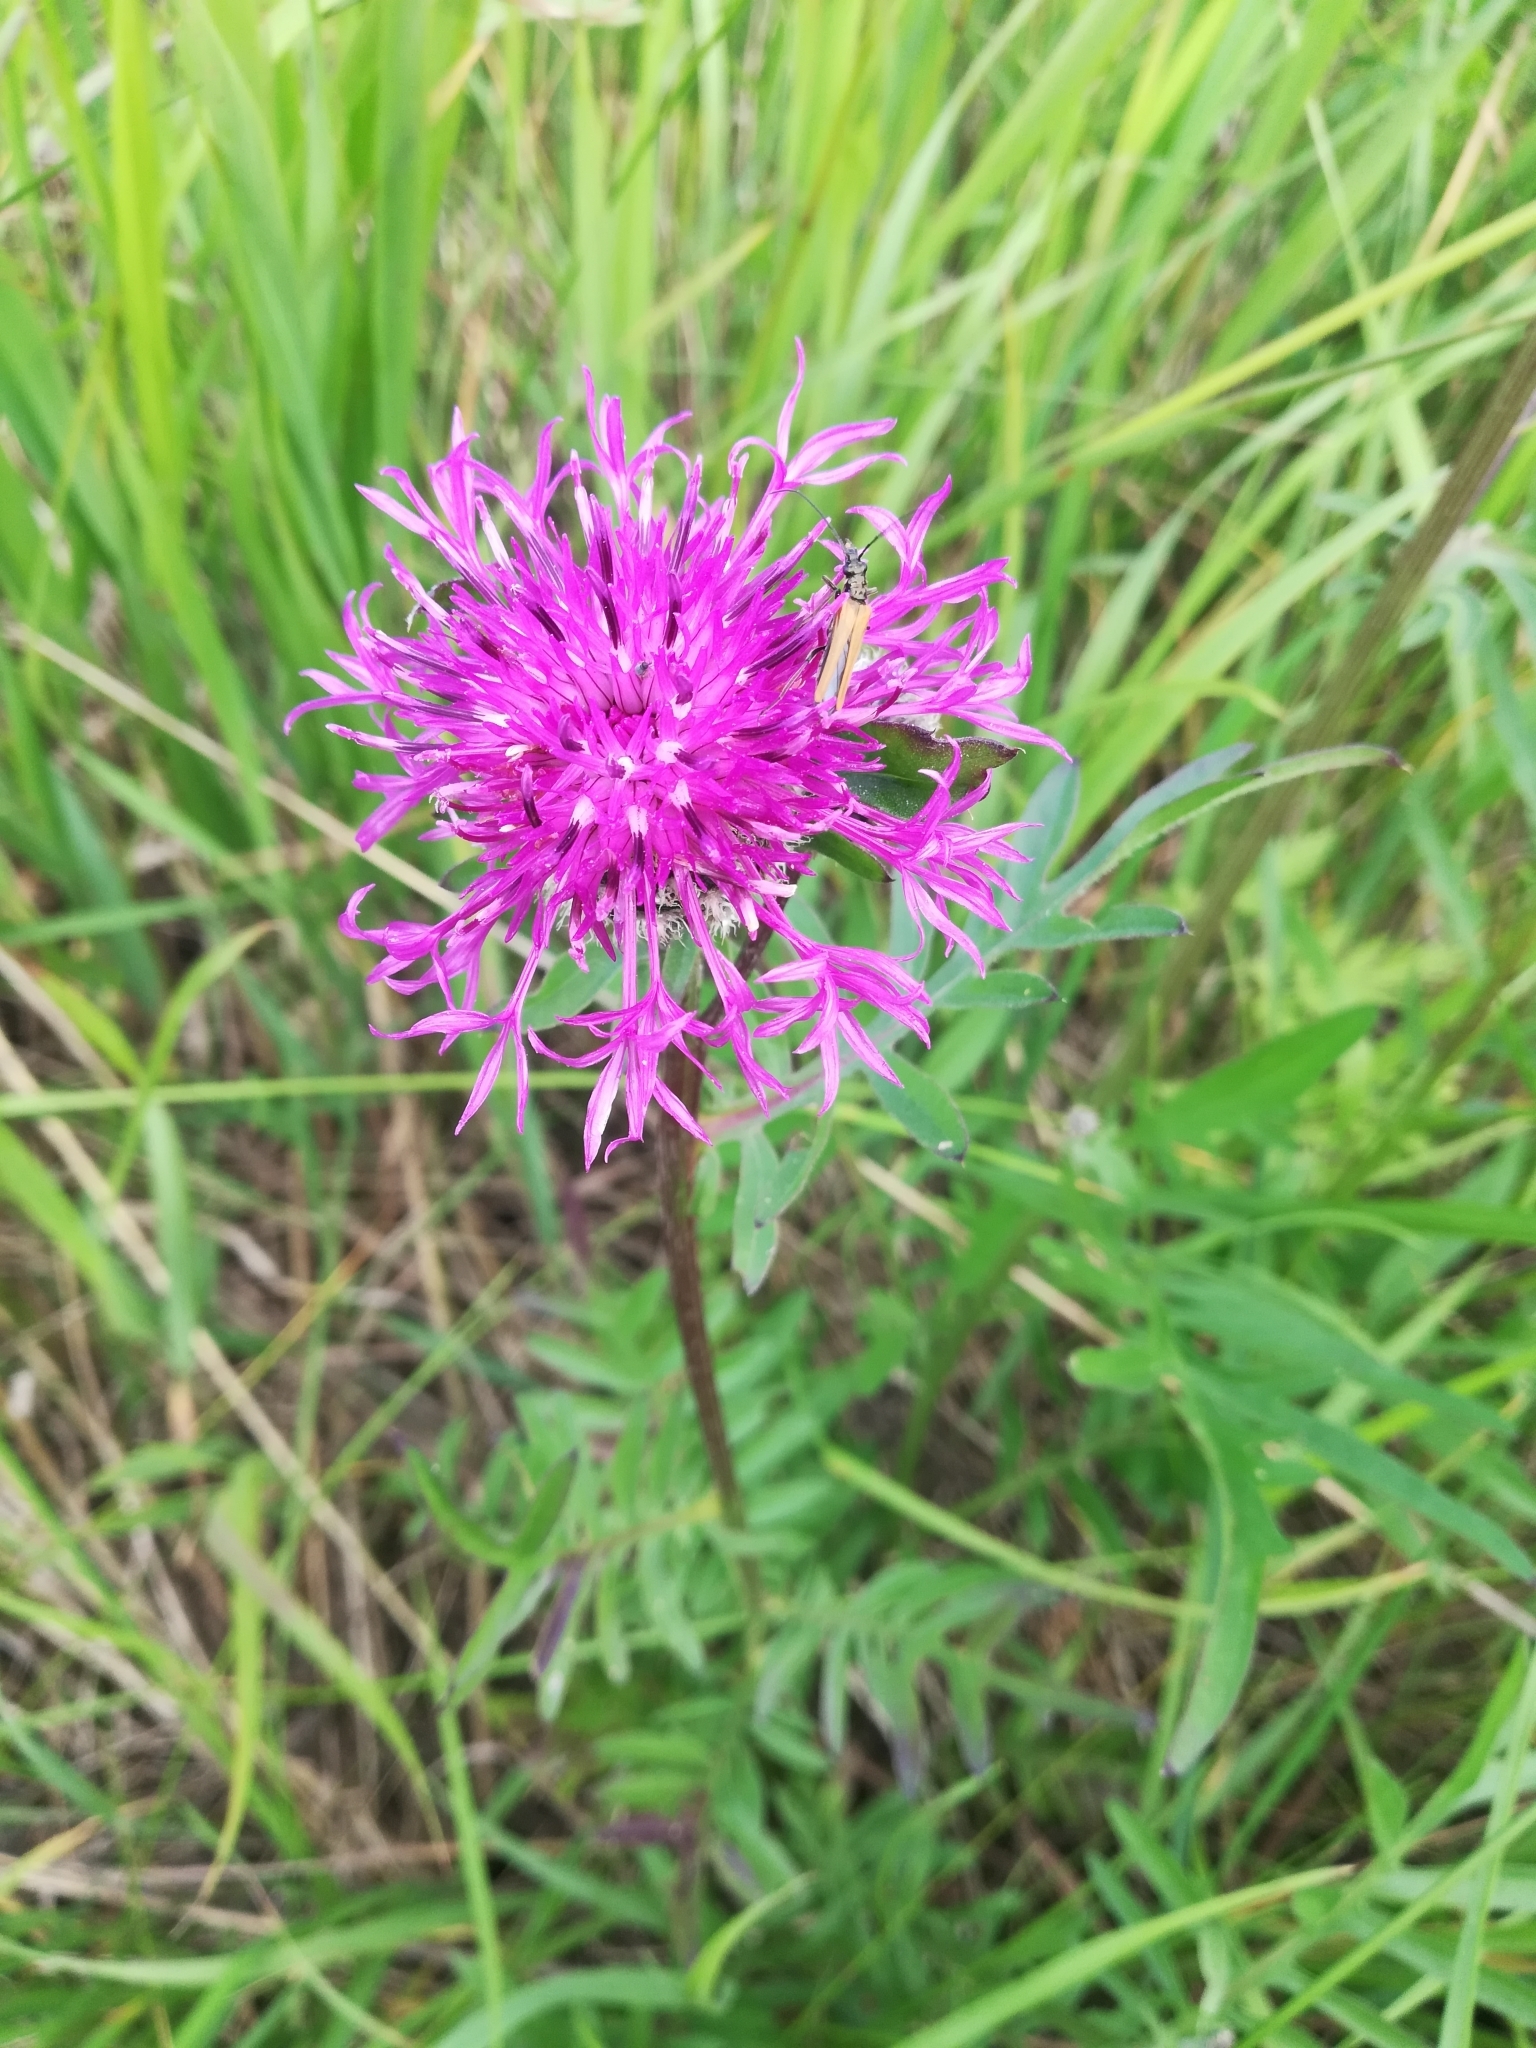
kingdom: Plantae
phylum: Tracheophyta
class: Magnoliopsida
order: Asterales
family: Asteraceae
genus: Centaurea
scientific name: Centaurea scabiosa
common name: Greater knapweed
